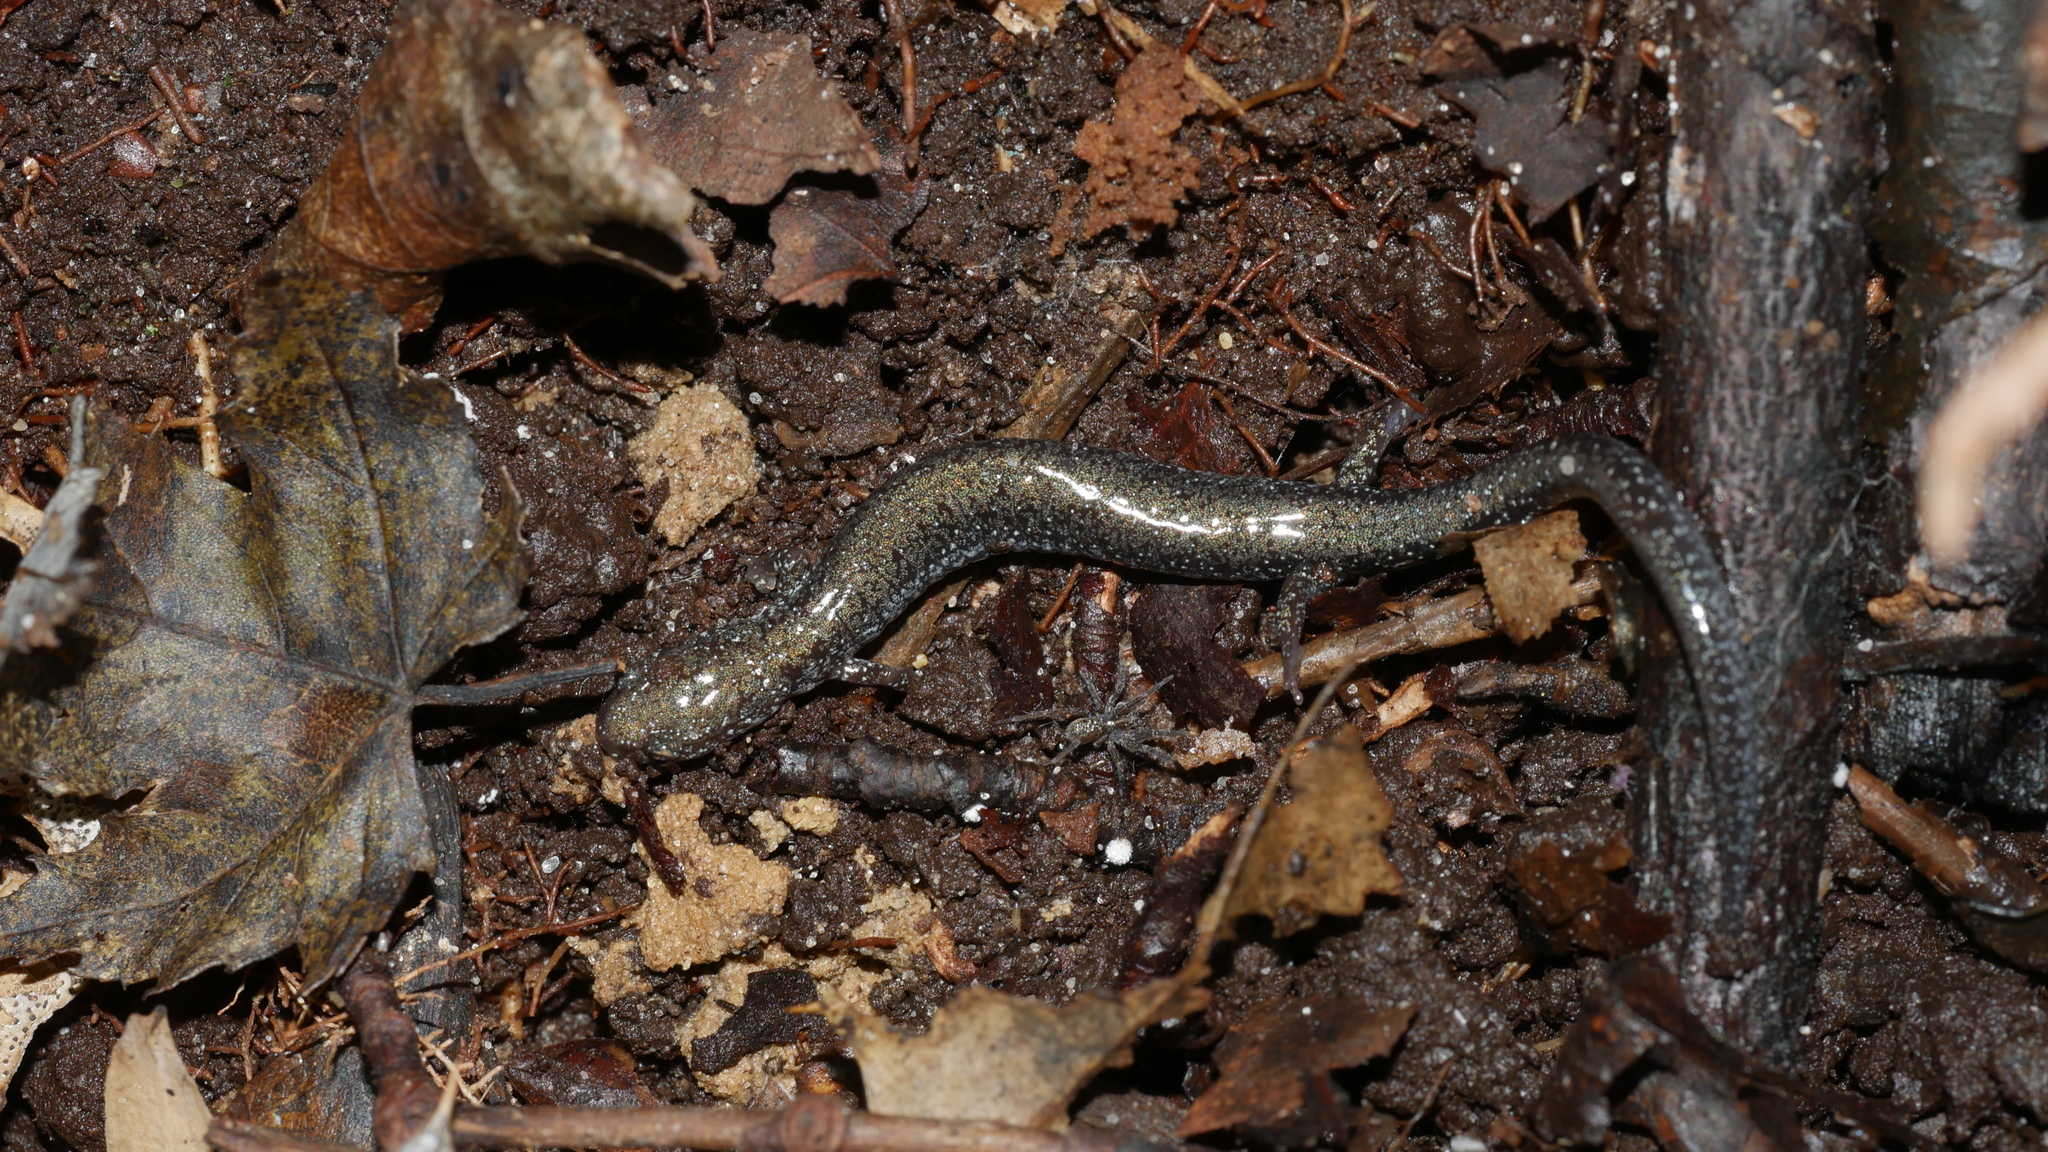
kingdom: Animalia
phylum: Chordata
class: Amphibia
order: Caudata
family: Plethodontidae
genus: Plethodon
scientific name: Plethodon cinereus
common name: Redback salamander
